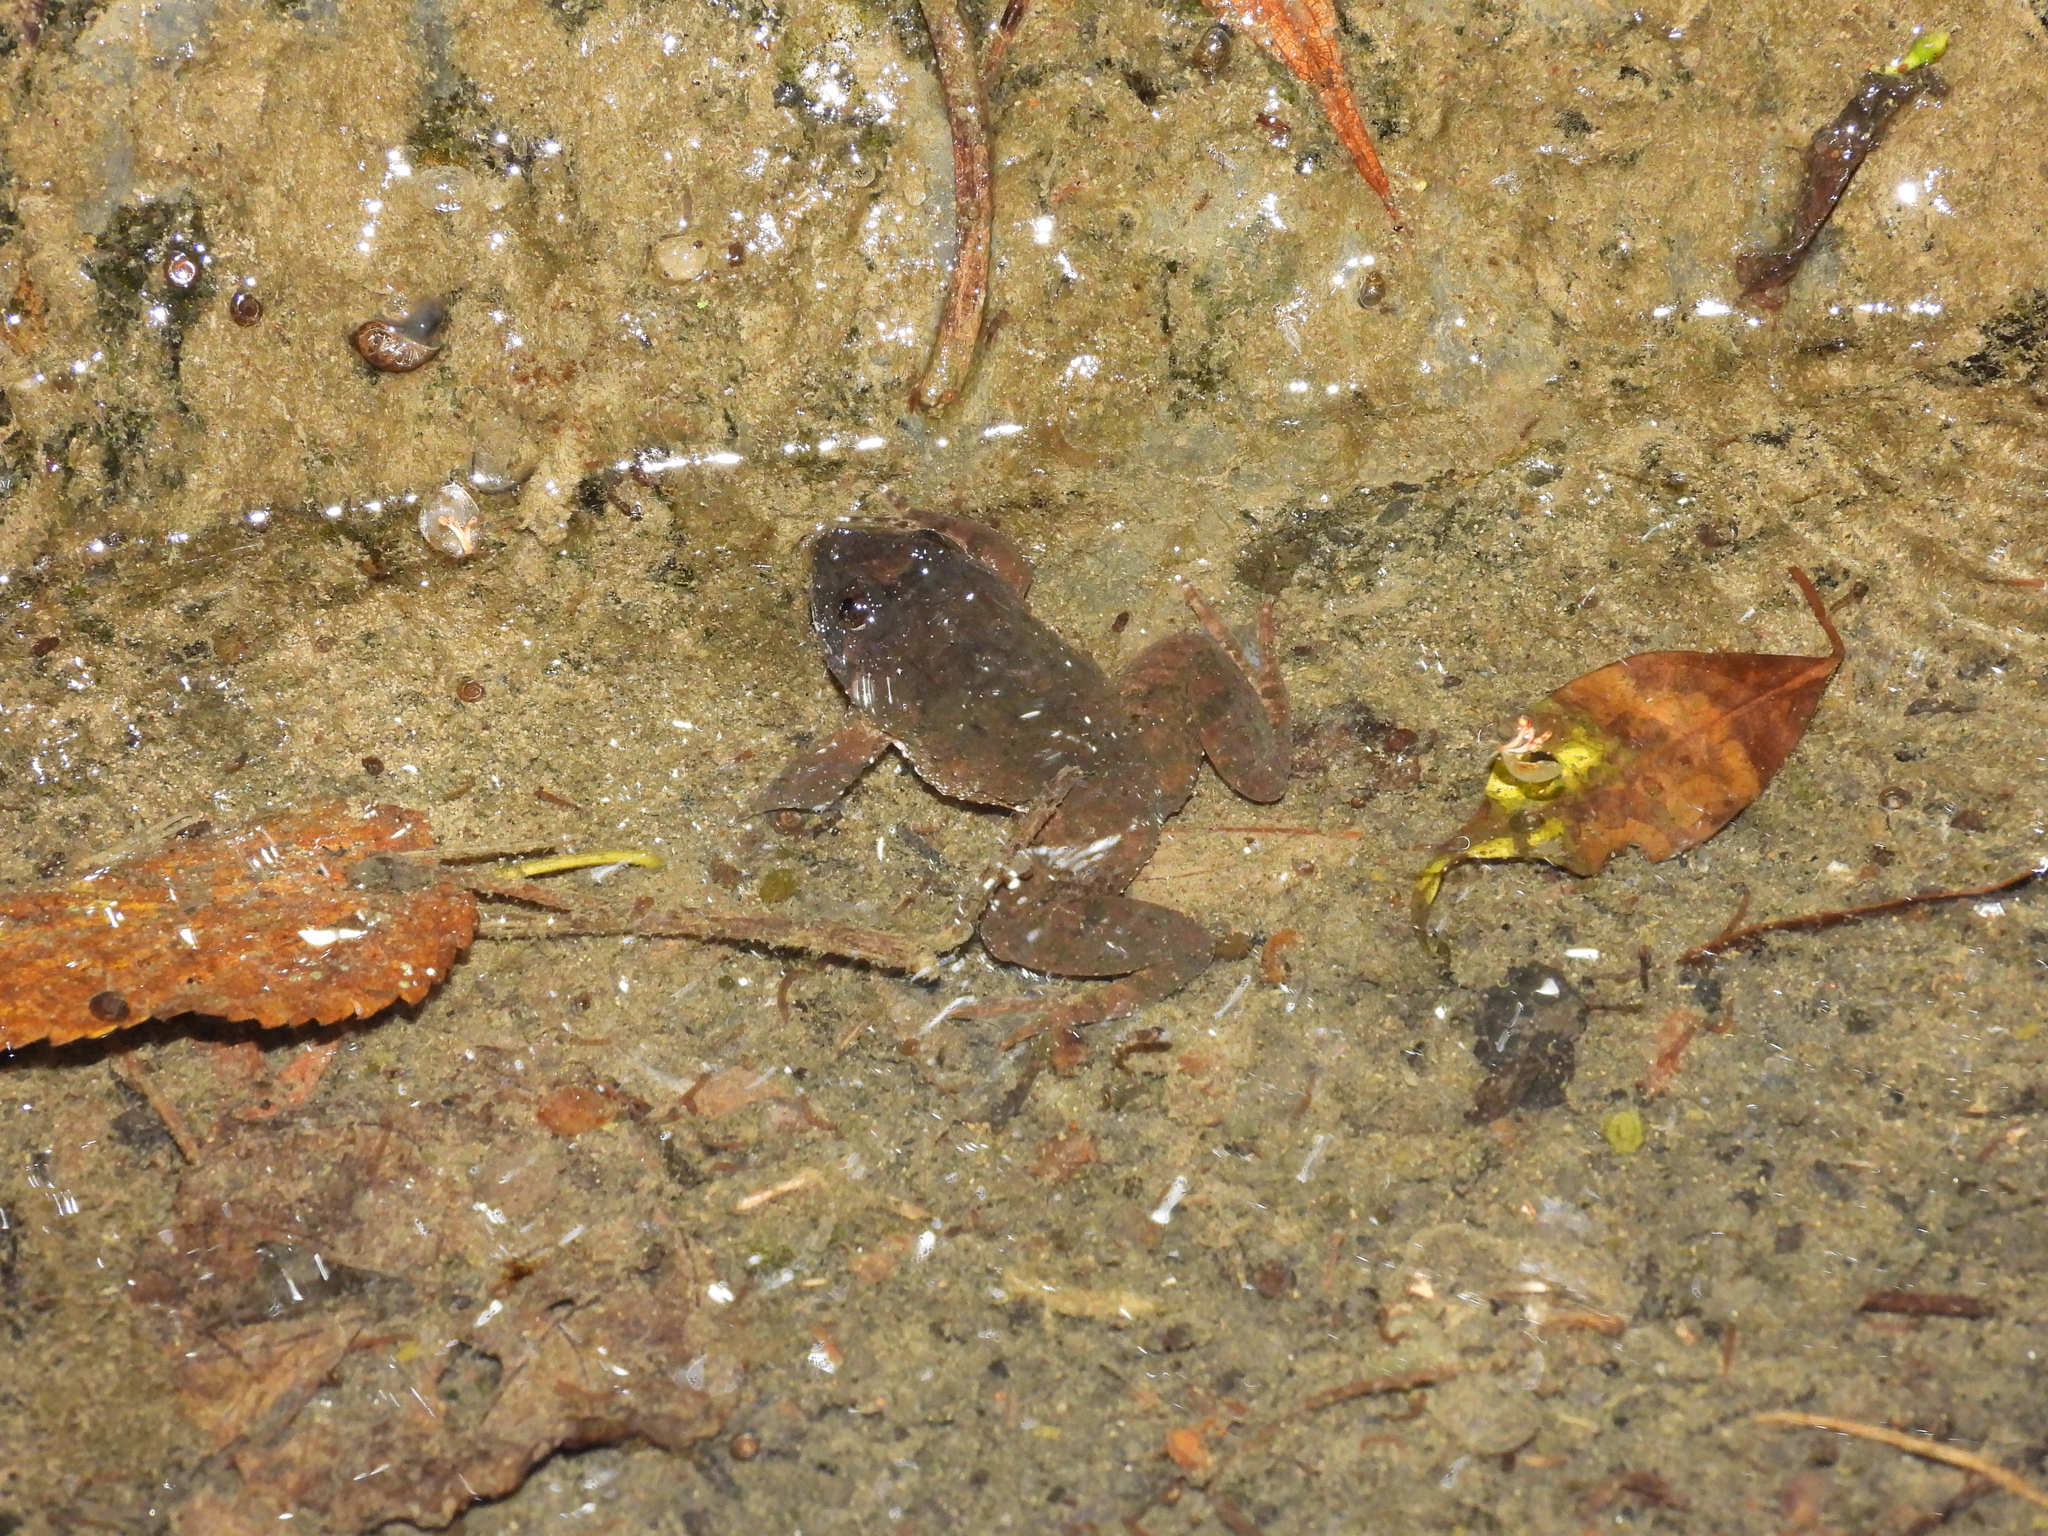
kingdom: Animalia
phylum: Chordata
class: Amphibia
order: Anura
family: Dicroglossidae
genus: Limnonectes
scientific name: Limnonectes fujianensis
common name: Fujian large-headed frog
